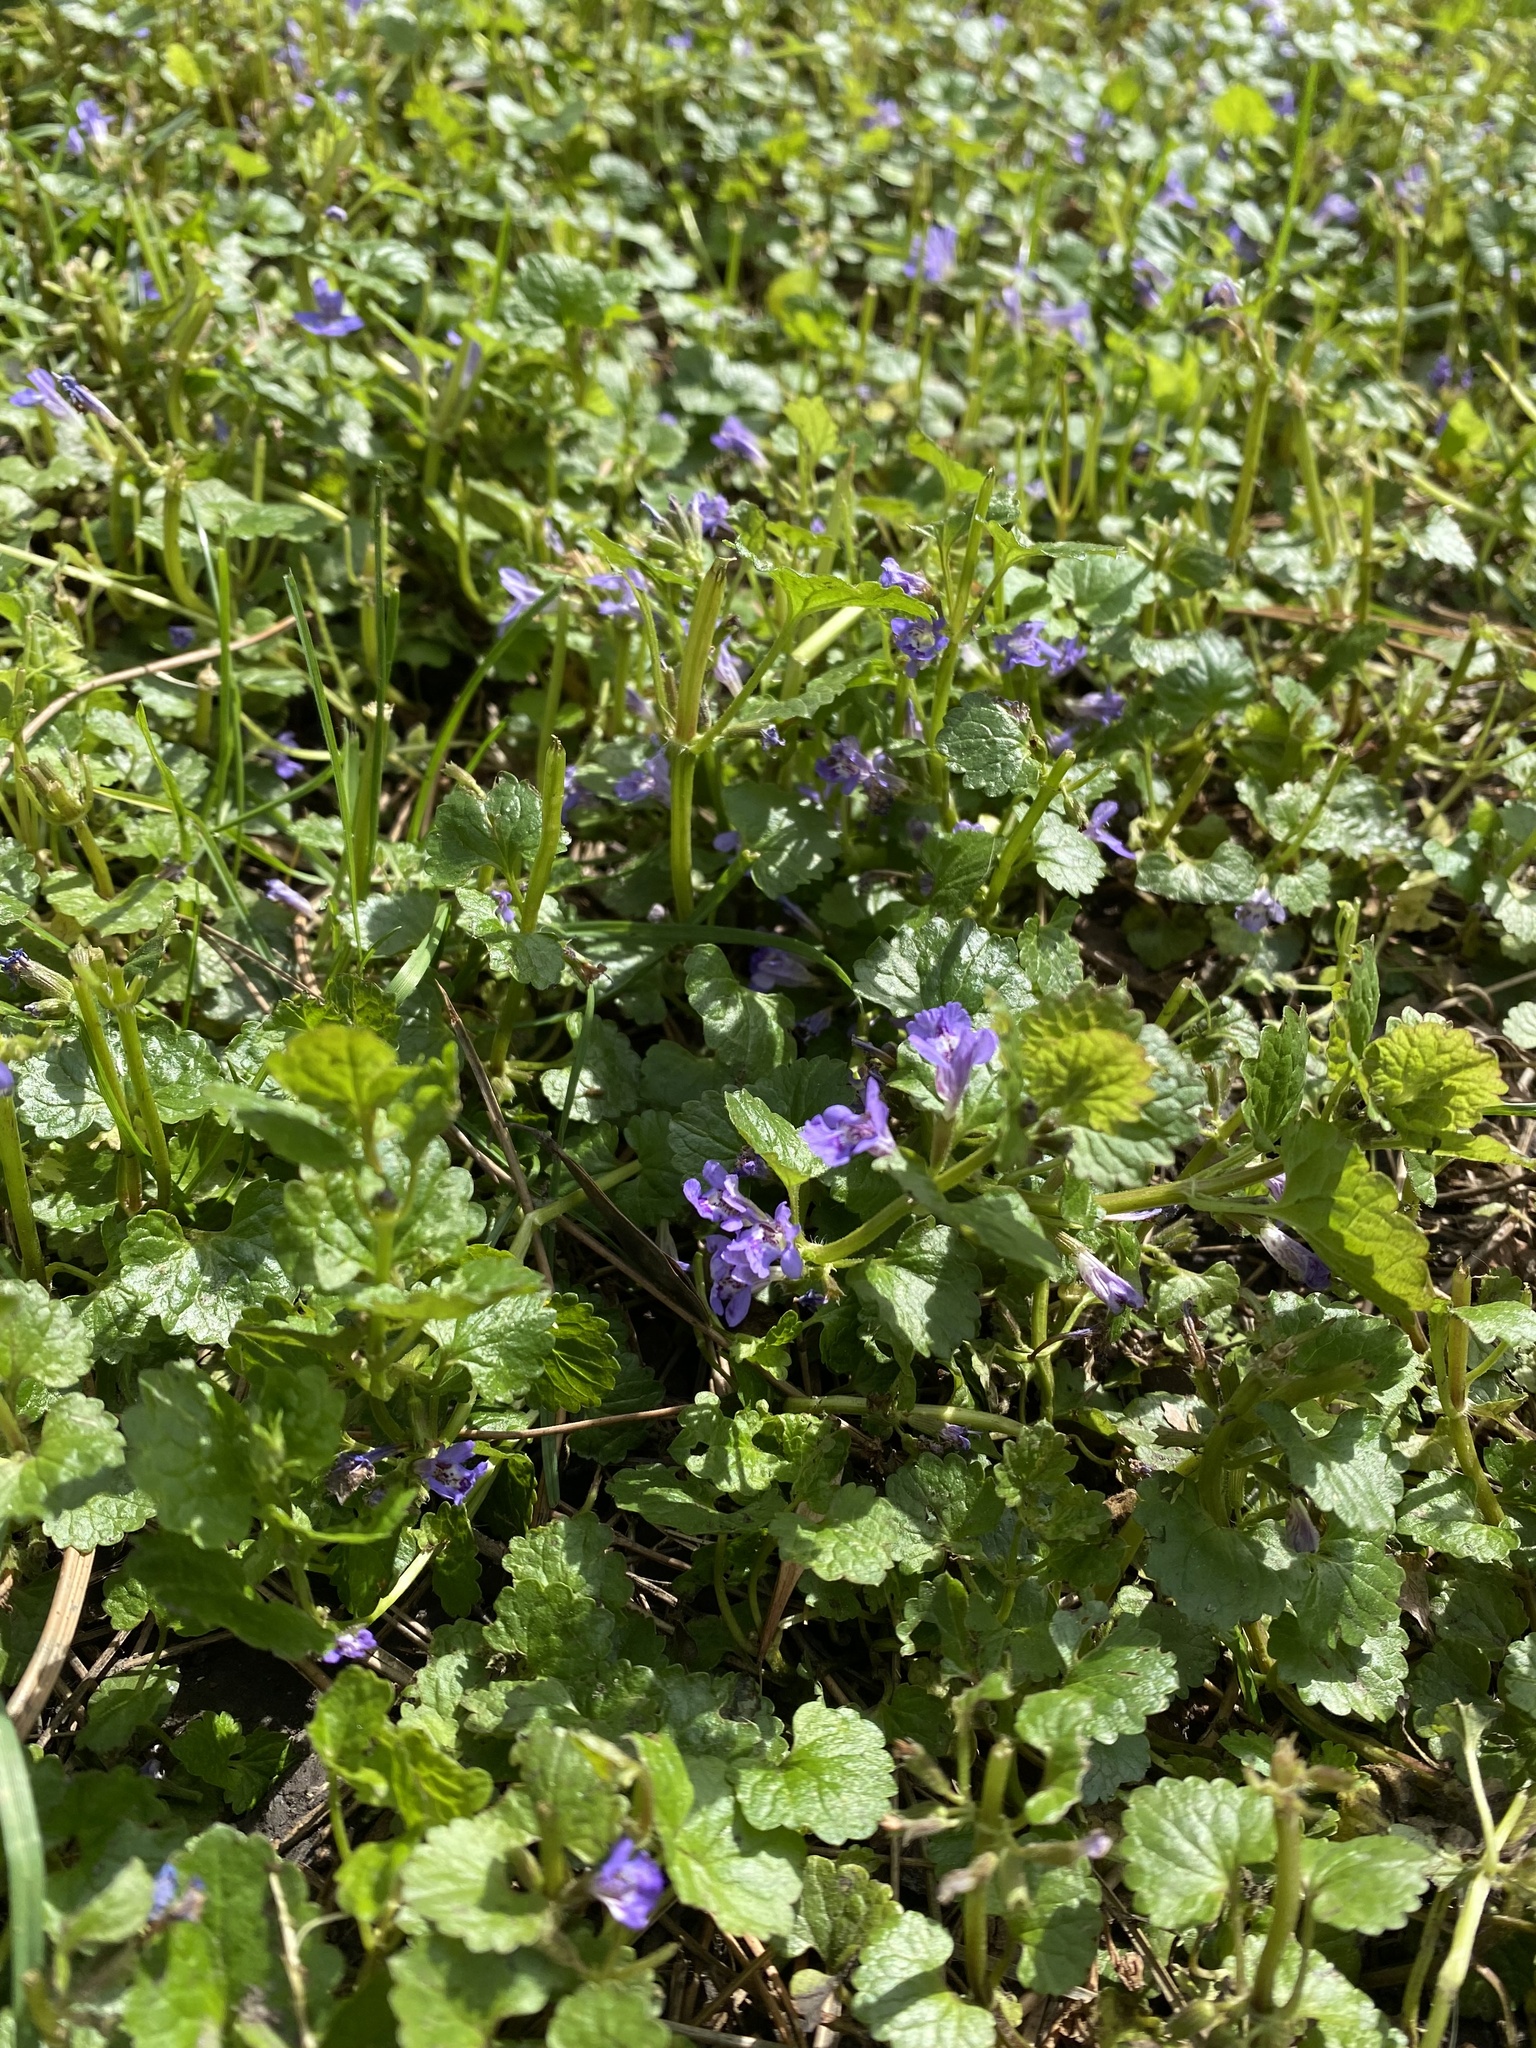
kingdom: Plantae
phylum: Tracheophyta
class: Magnoliopsida
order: Lamiales
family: Lamiaceae
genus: Glechoma
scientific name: Glechoma hederacea
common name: Ground ivy
